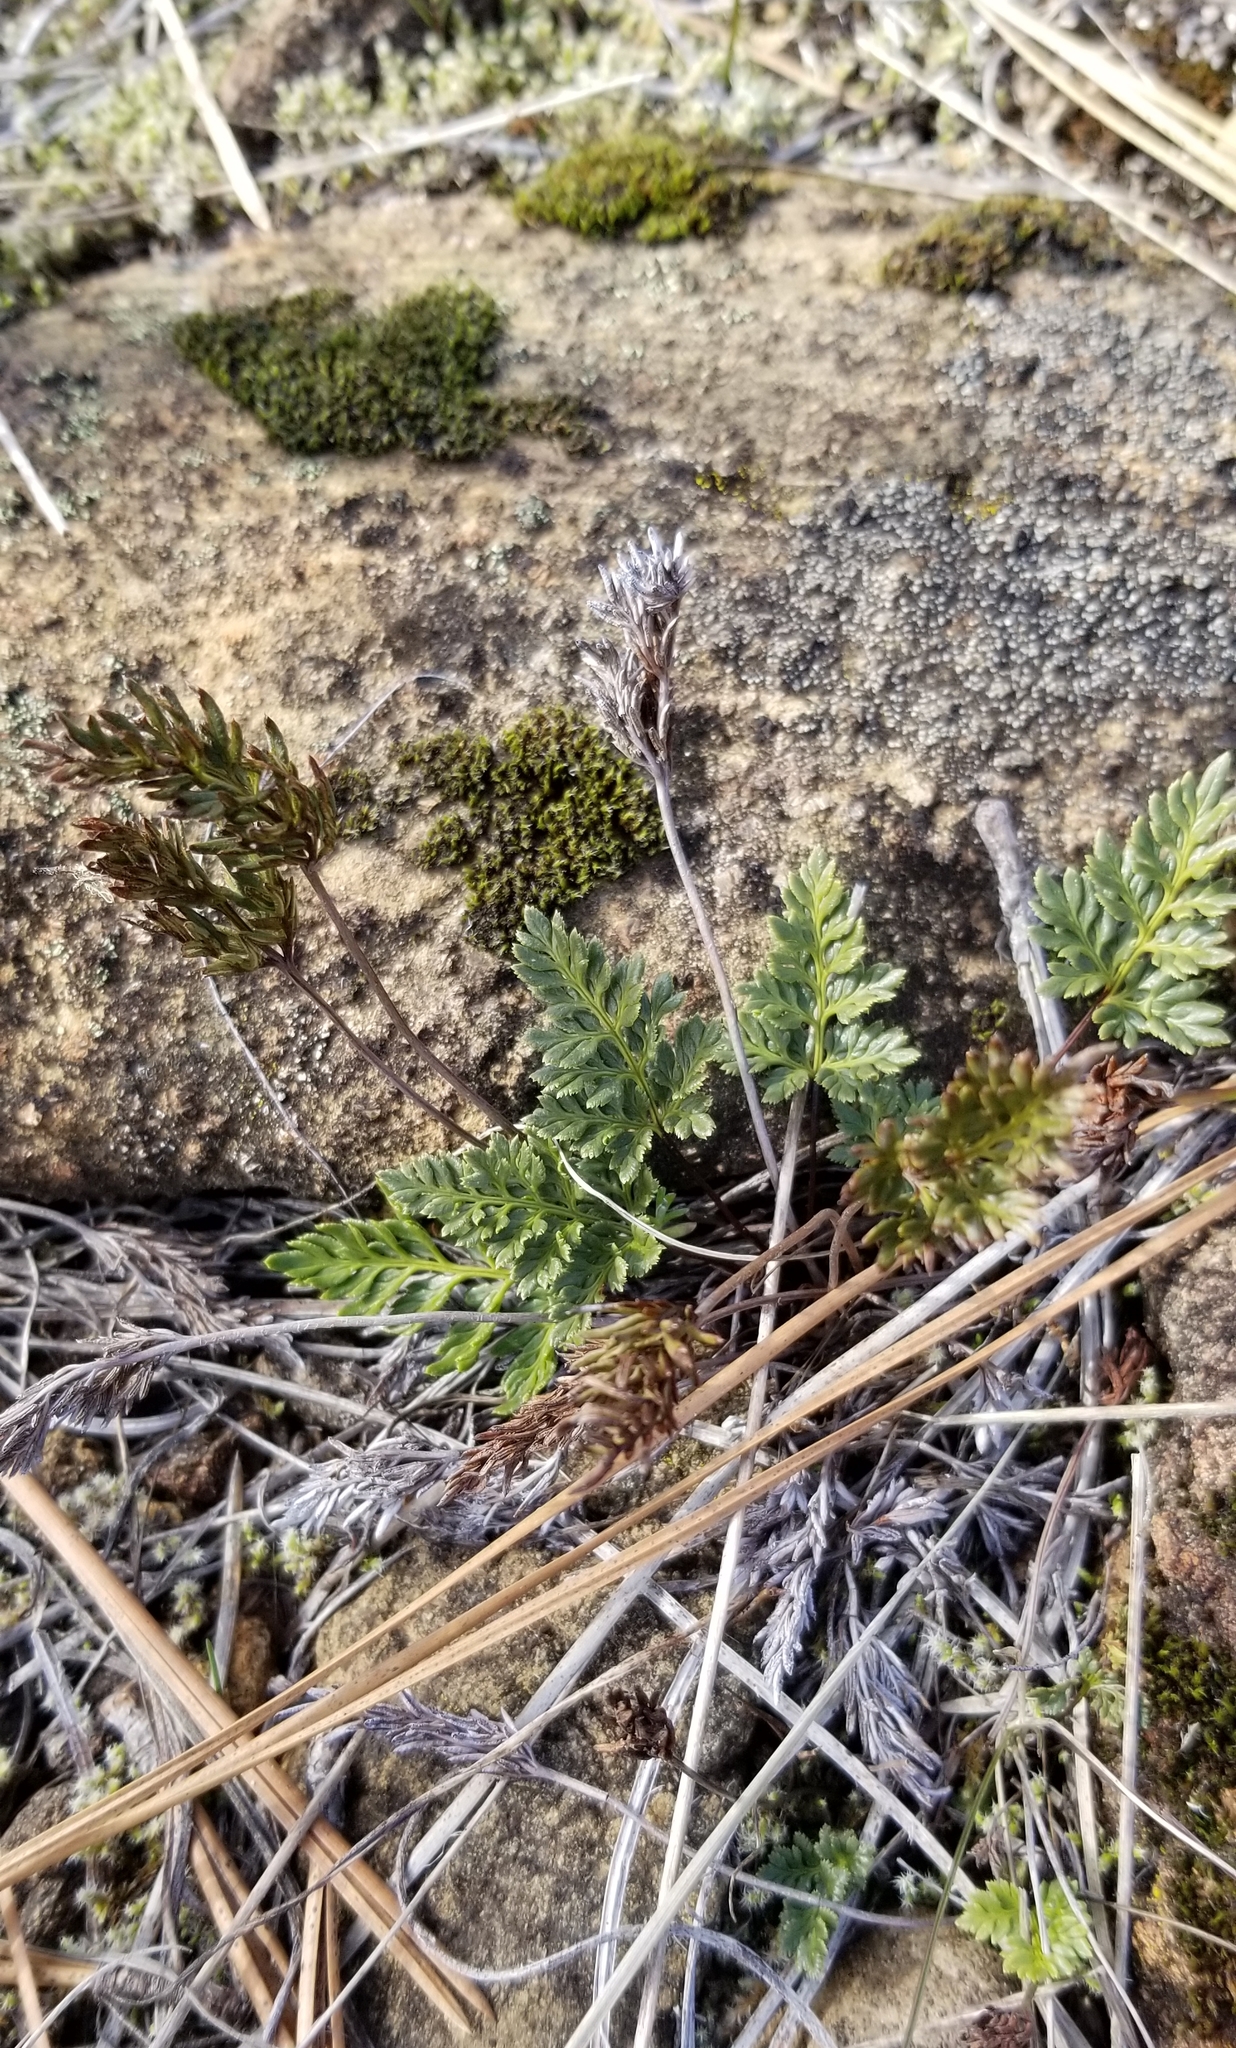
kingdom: Plantae
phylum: Tracheophyta
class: Polypodiopsida
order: Polypodiales
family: Pteridaceae
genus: Aspidotis
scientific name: Aspidotis densa
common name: Indian's dream
